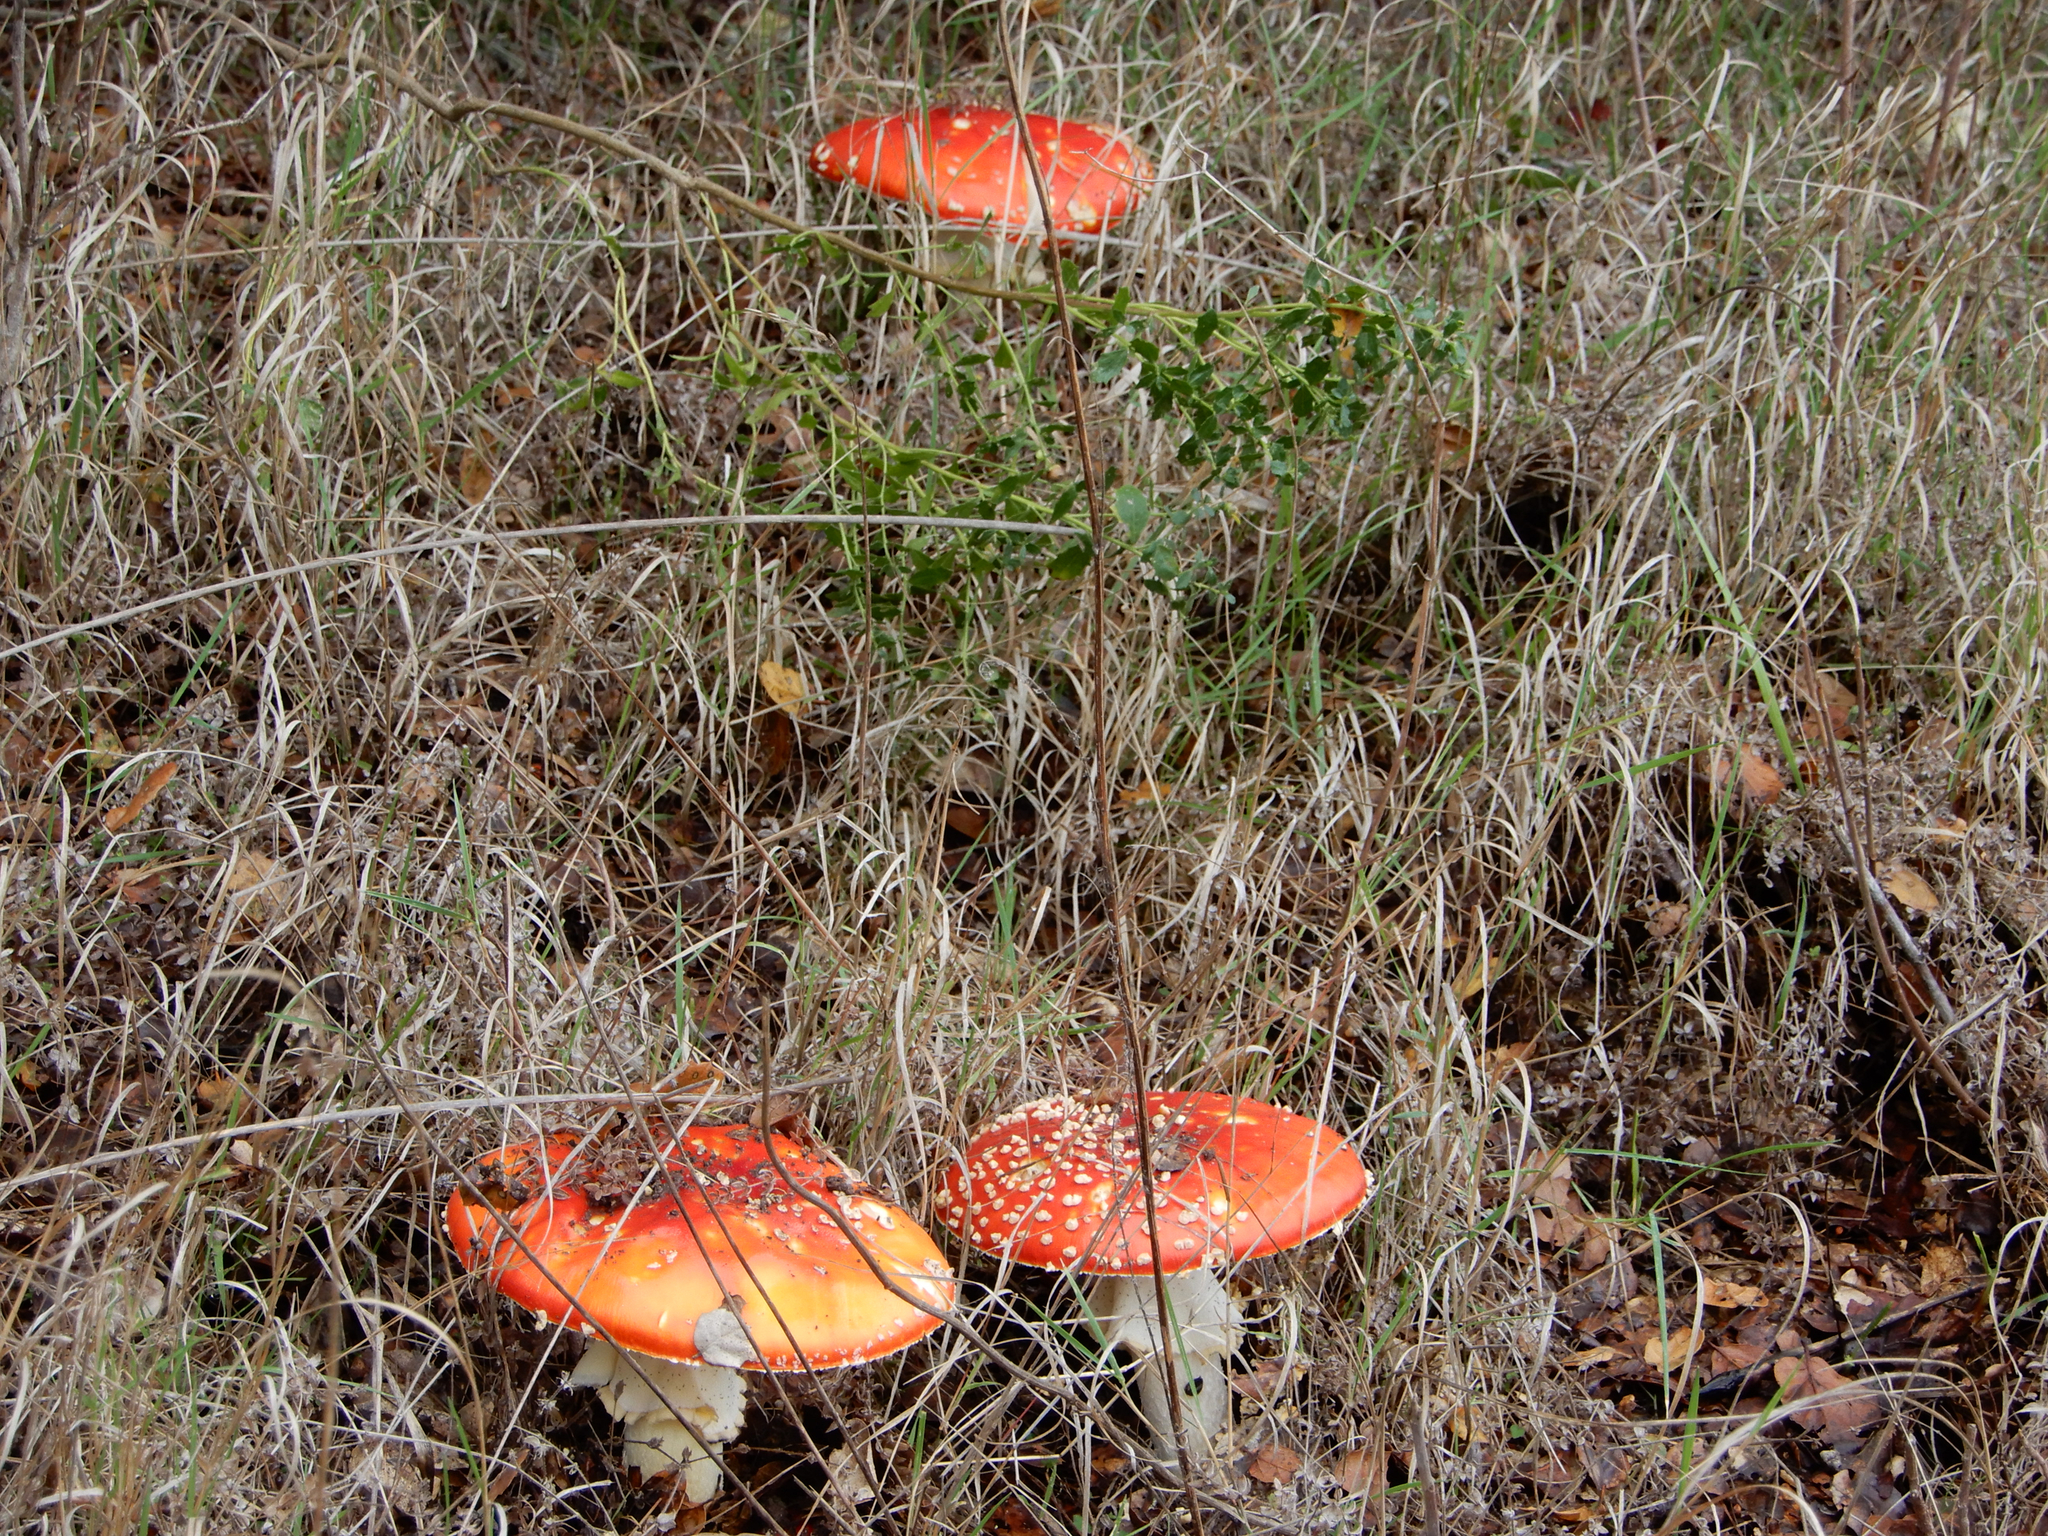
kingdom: Fungi
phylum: Basidiomycota
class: Agaricomycetes
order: Agaricales
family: Amanitaceae
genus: Amanita
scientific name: Amanita muscaria
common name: Fly agaric
